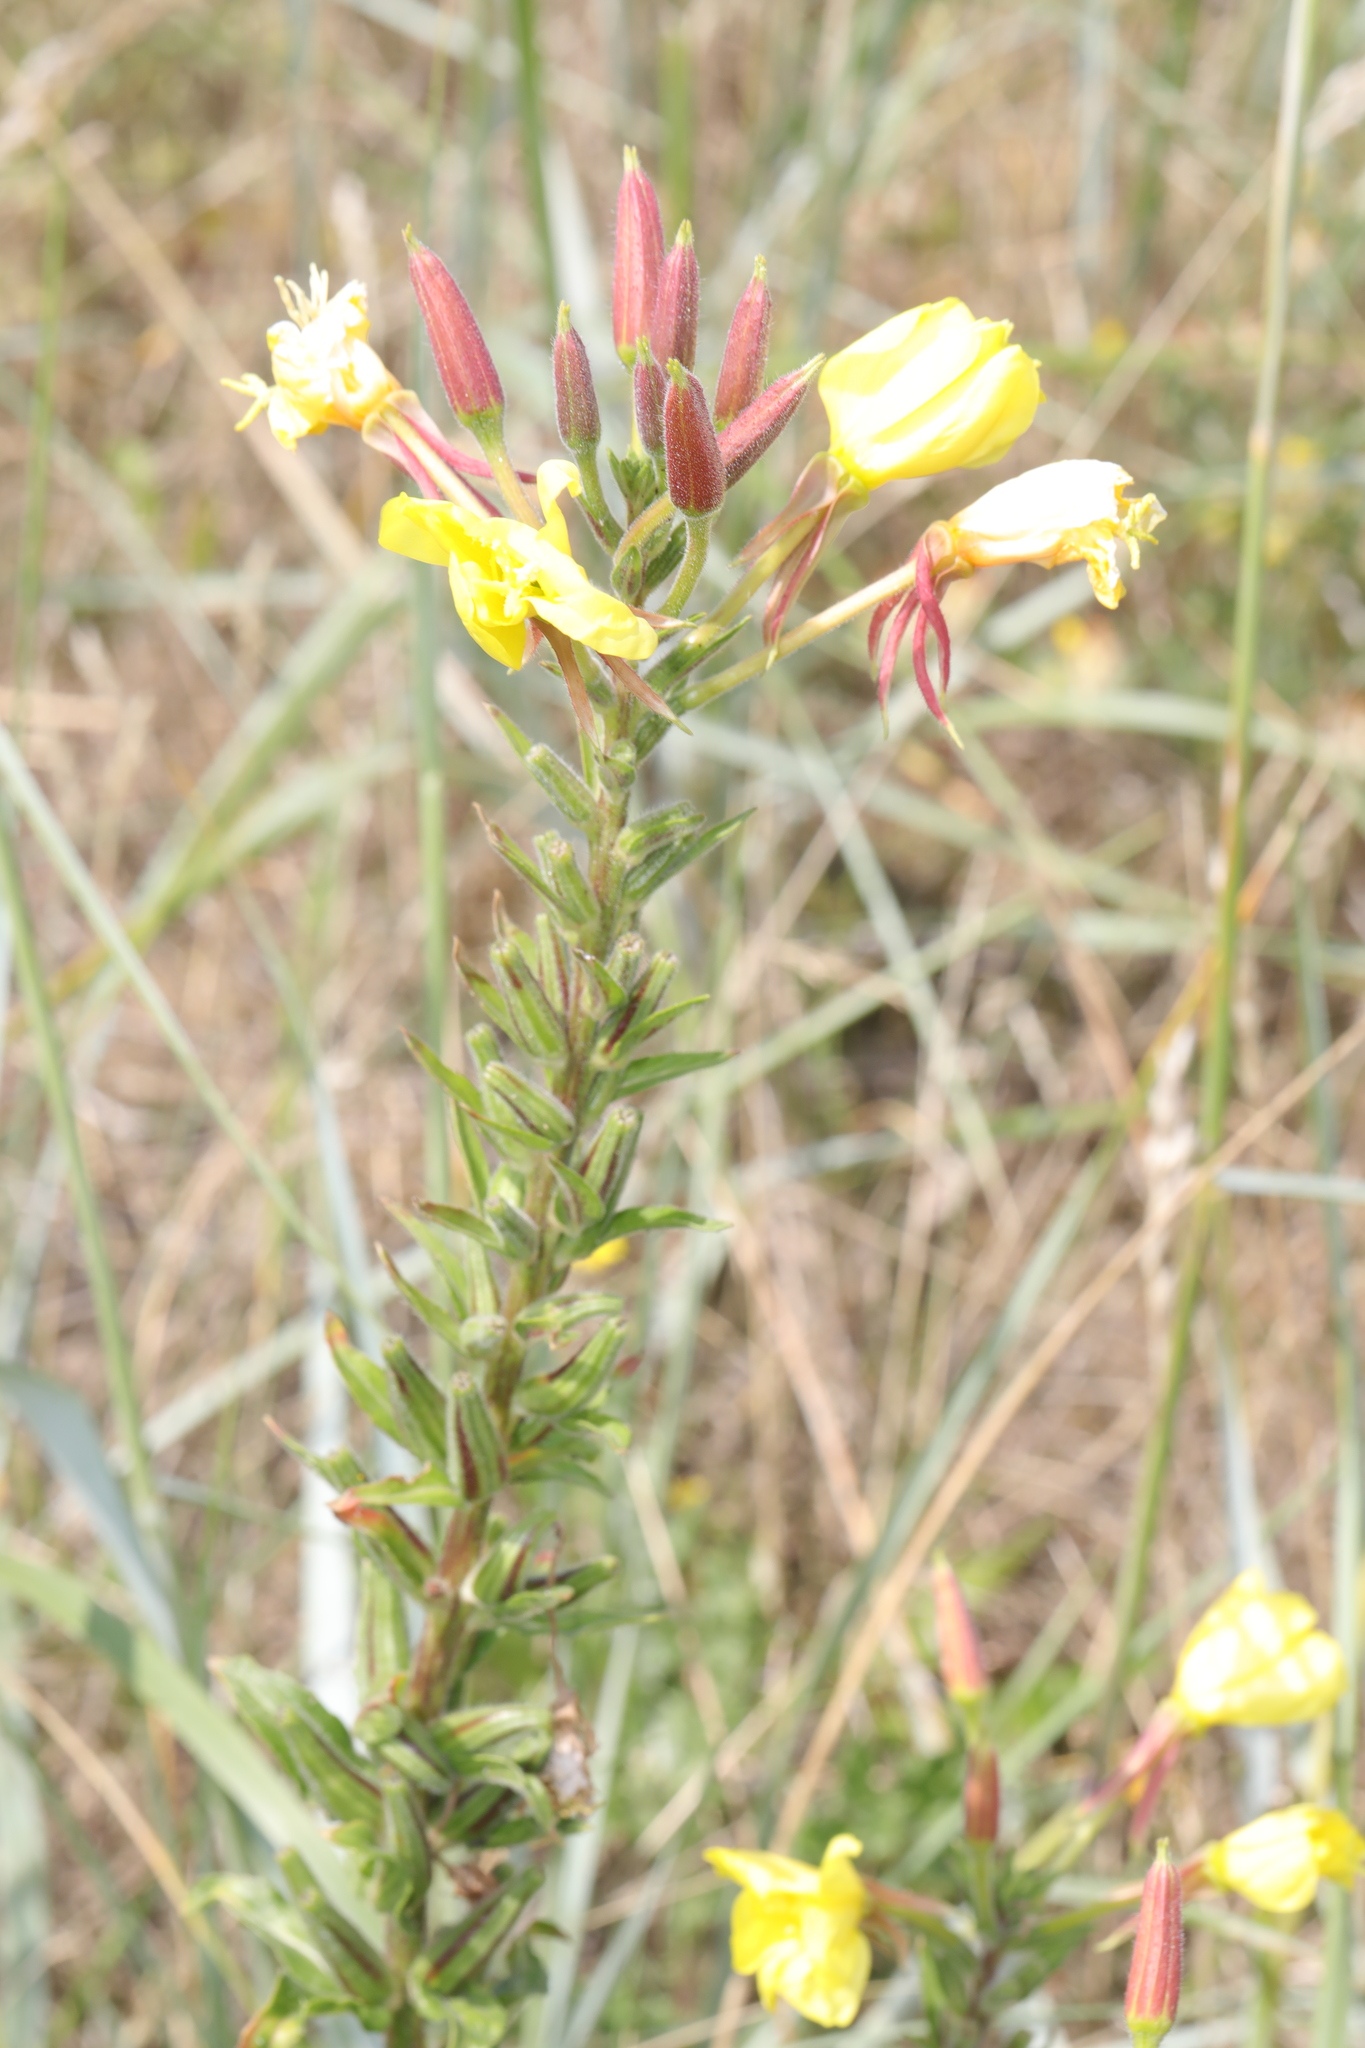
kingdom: Plantae
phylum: Tracheophyta
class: Magnoliopsida
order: Myrtales
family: Onagraceae
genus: Oenothera
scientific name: Oenothera glazioviana
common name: Large-flowered evening-primrose
